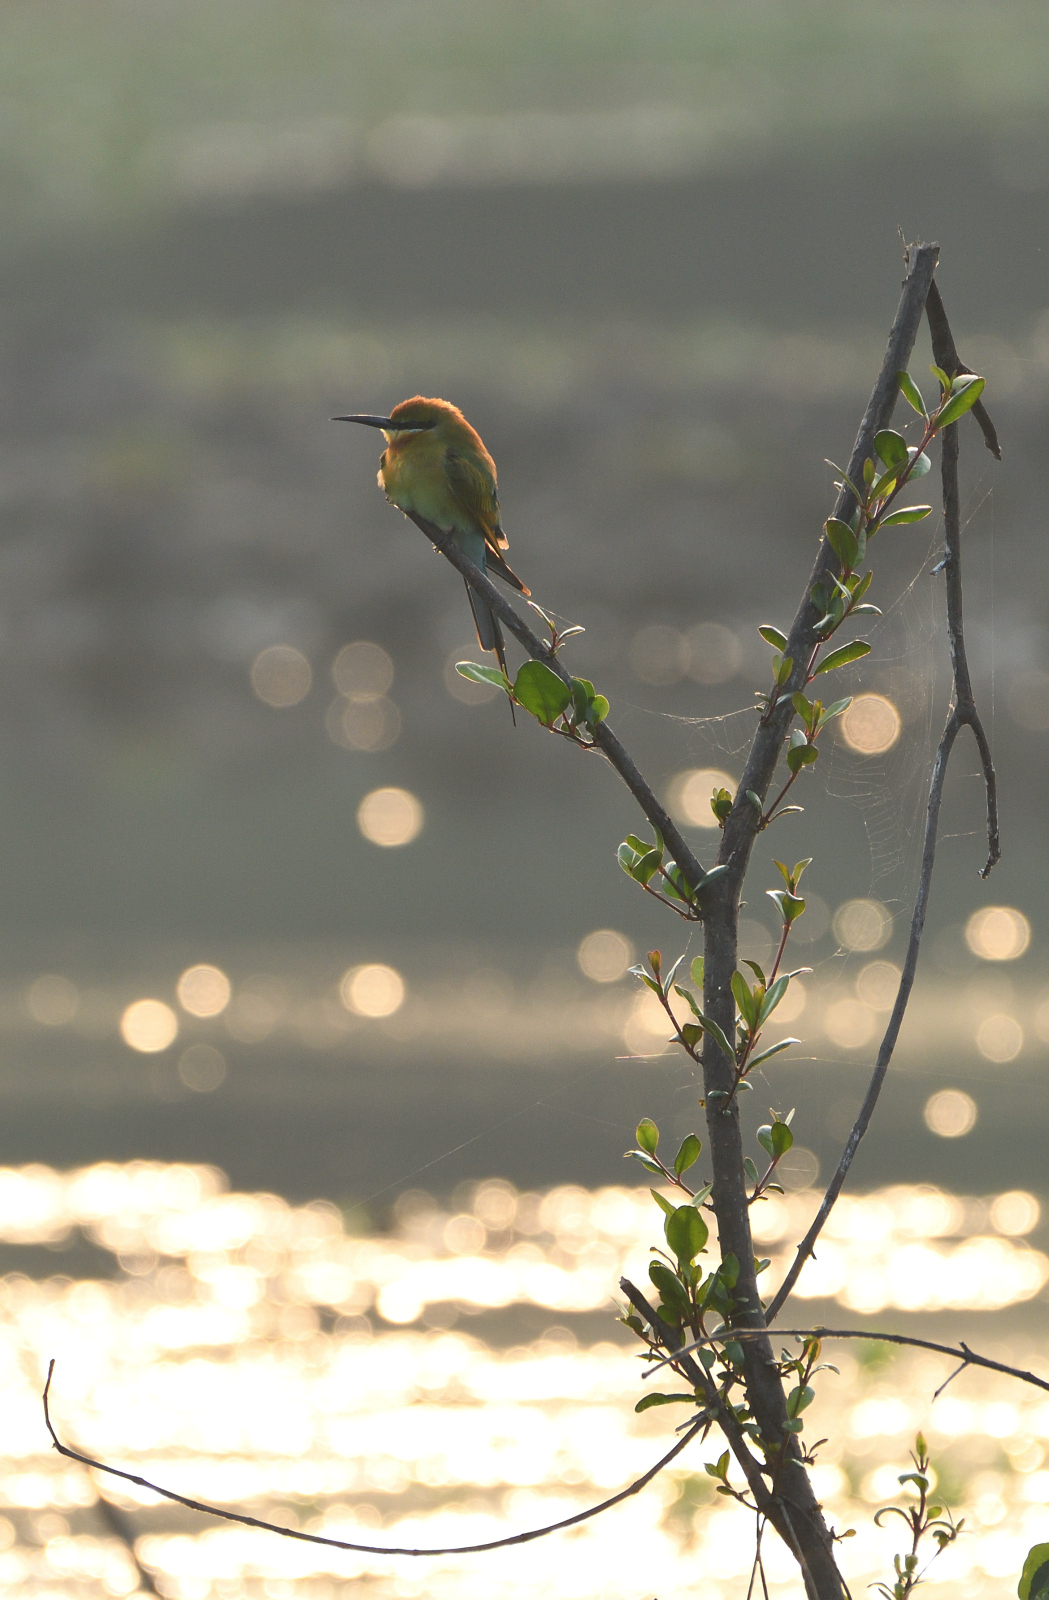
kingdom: Animalia
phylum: Chordata
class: Aves
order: Coraciiformes
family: Meropidae
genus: Merops
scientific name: Merops philippinus
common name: Blue-tailed bee-eater
